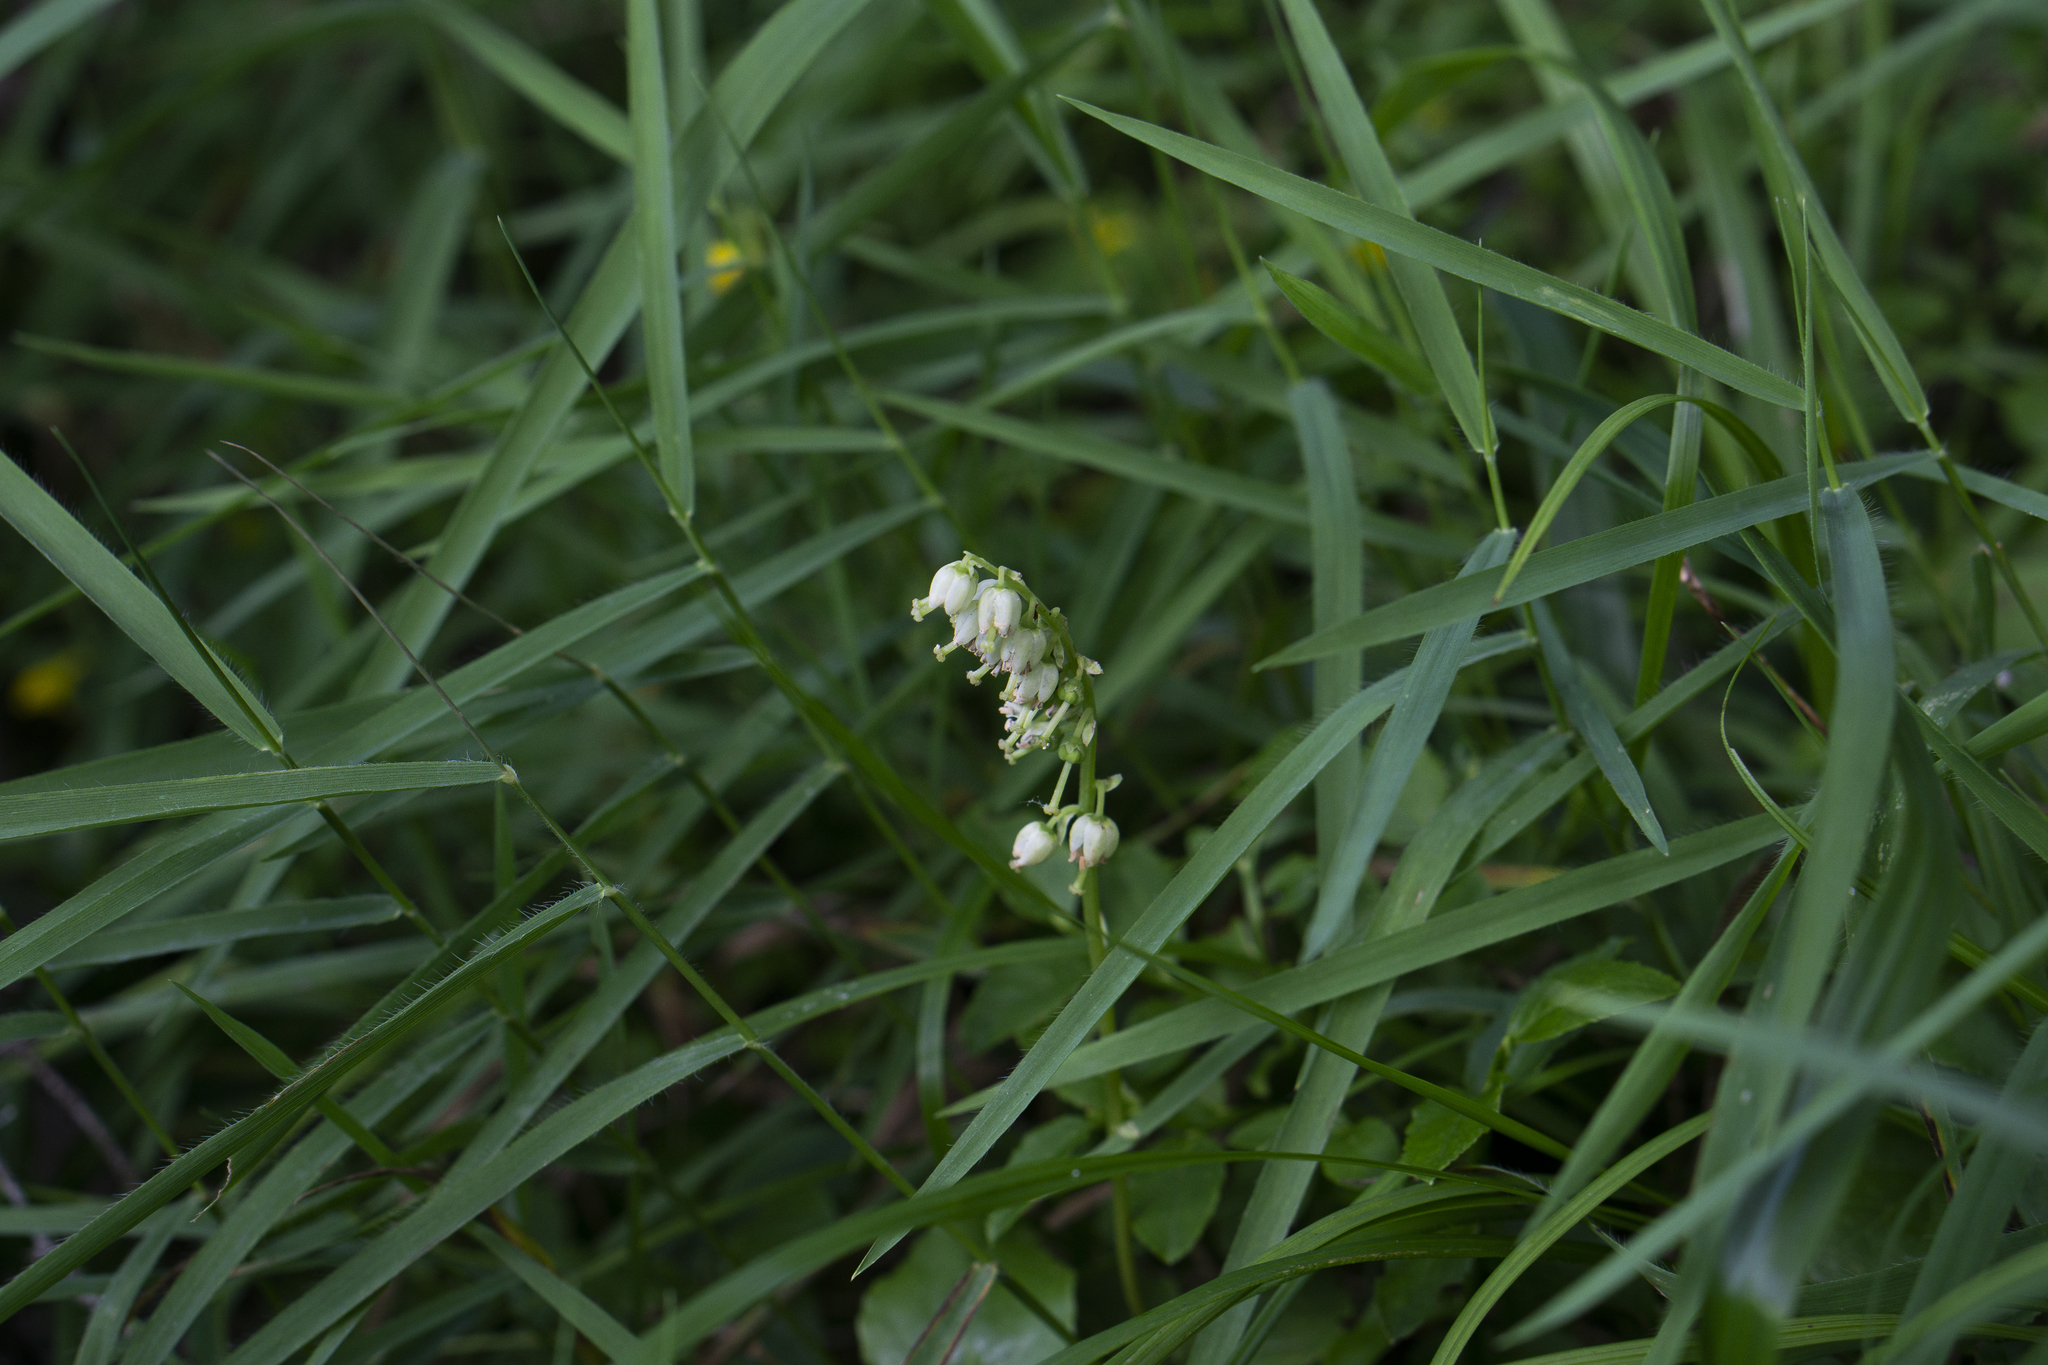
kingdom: Plantae
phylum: Tracheophyta
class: Magnoliopsida
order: Ericales
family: Ericaceae
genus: Orthilia
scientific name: Orthilia secunda
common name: One-sided orthilia
